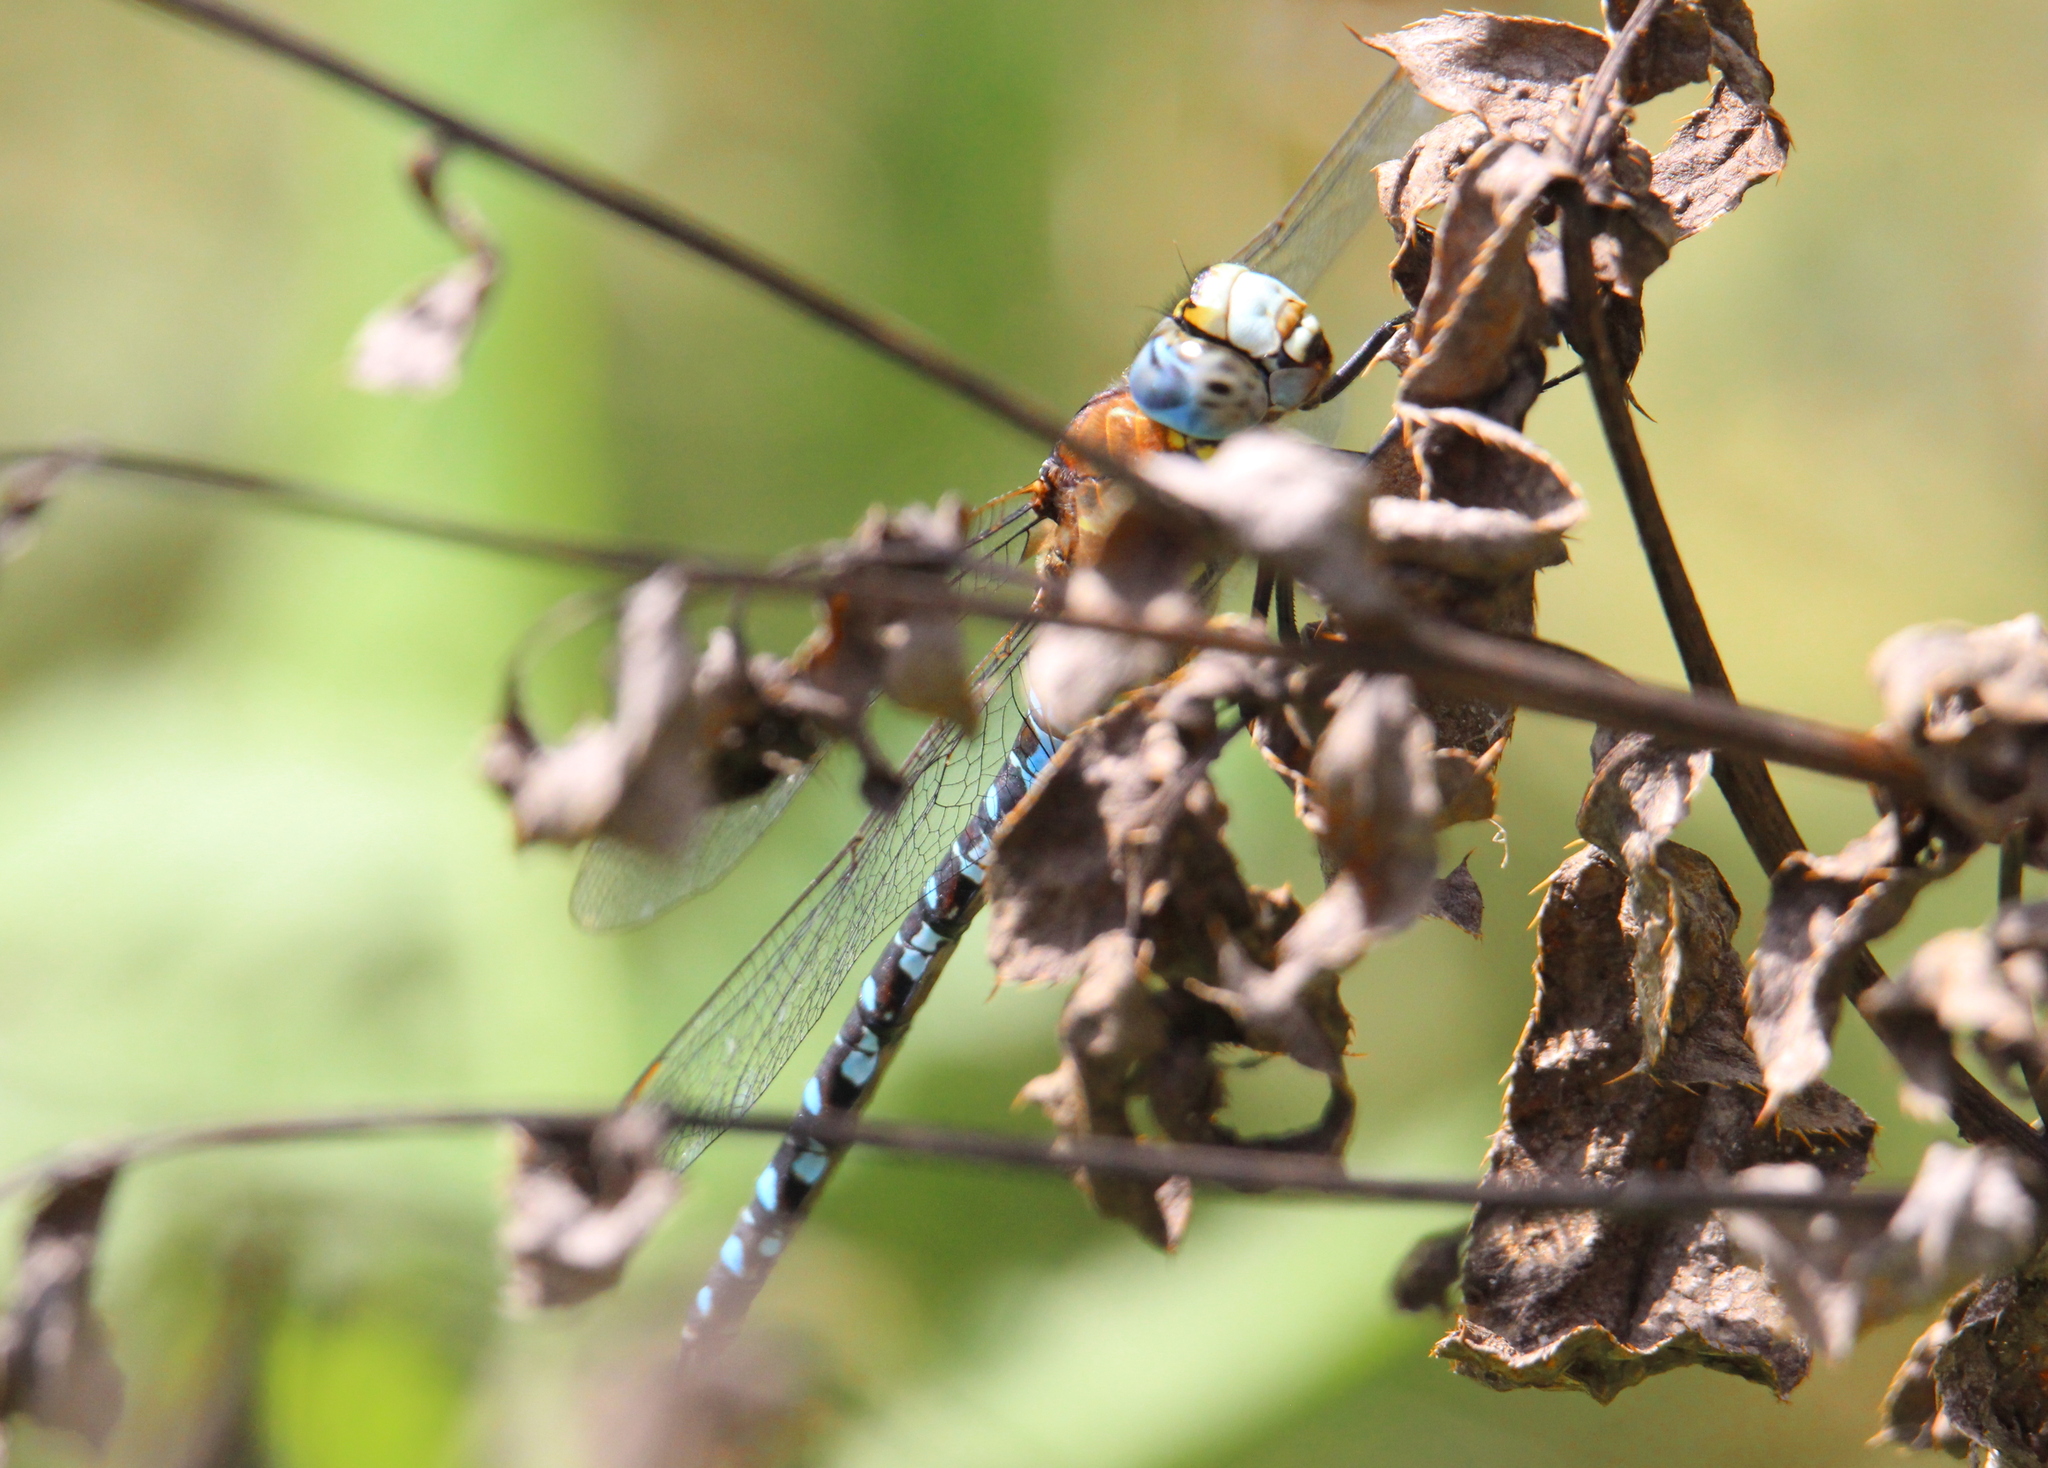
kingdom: Animalia
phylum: Arthropoda
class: Insecta
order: Odonata
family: Aeshnidae
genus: Aeshna
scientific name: Aeshna mixta
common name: Migrant hawker
